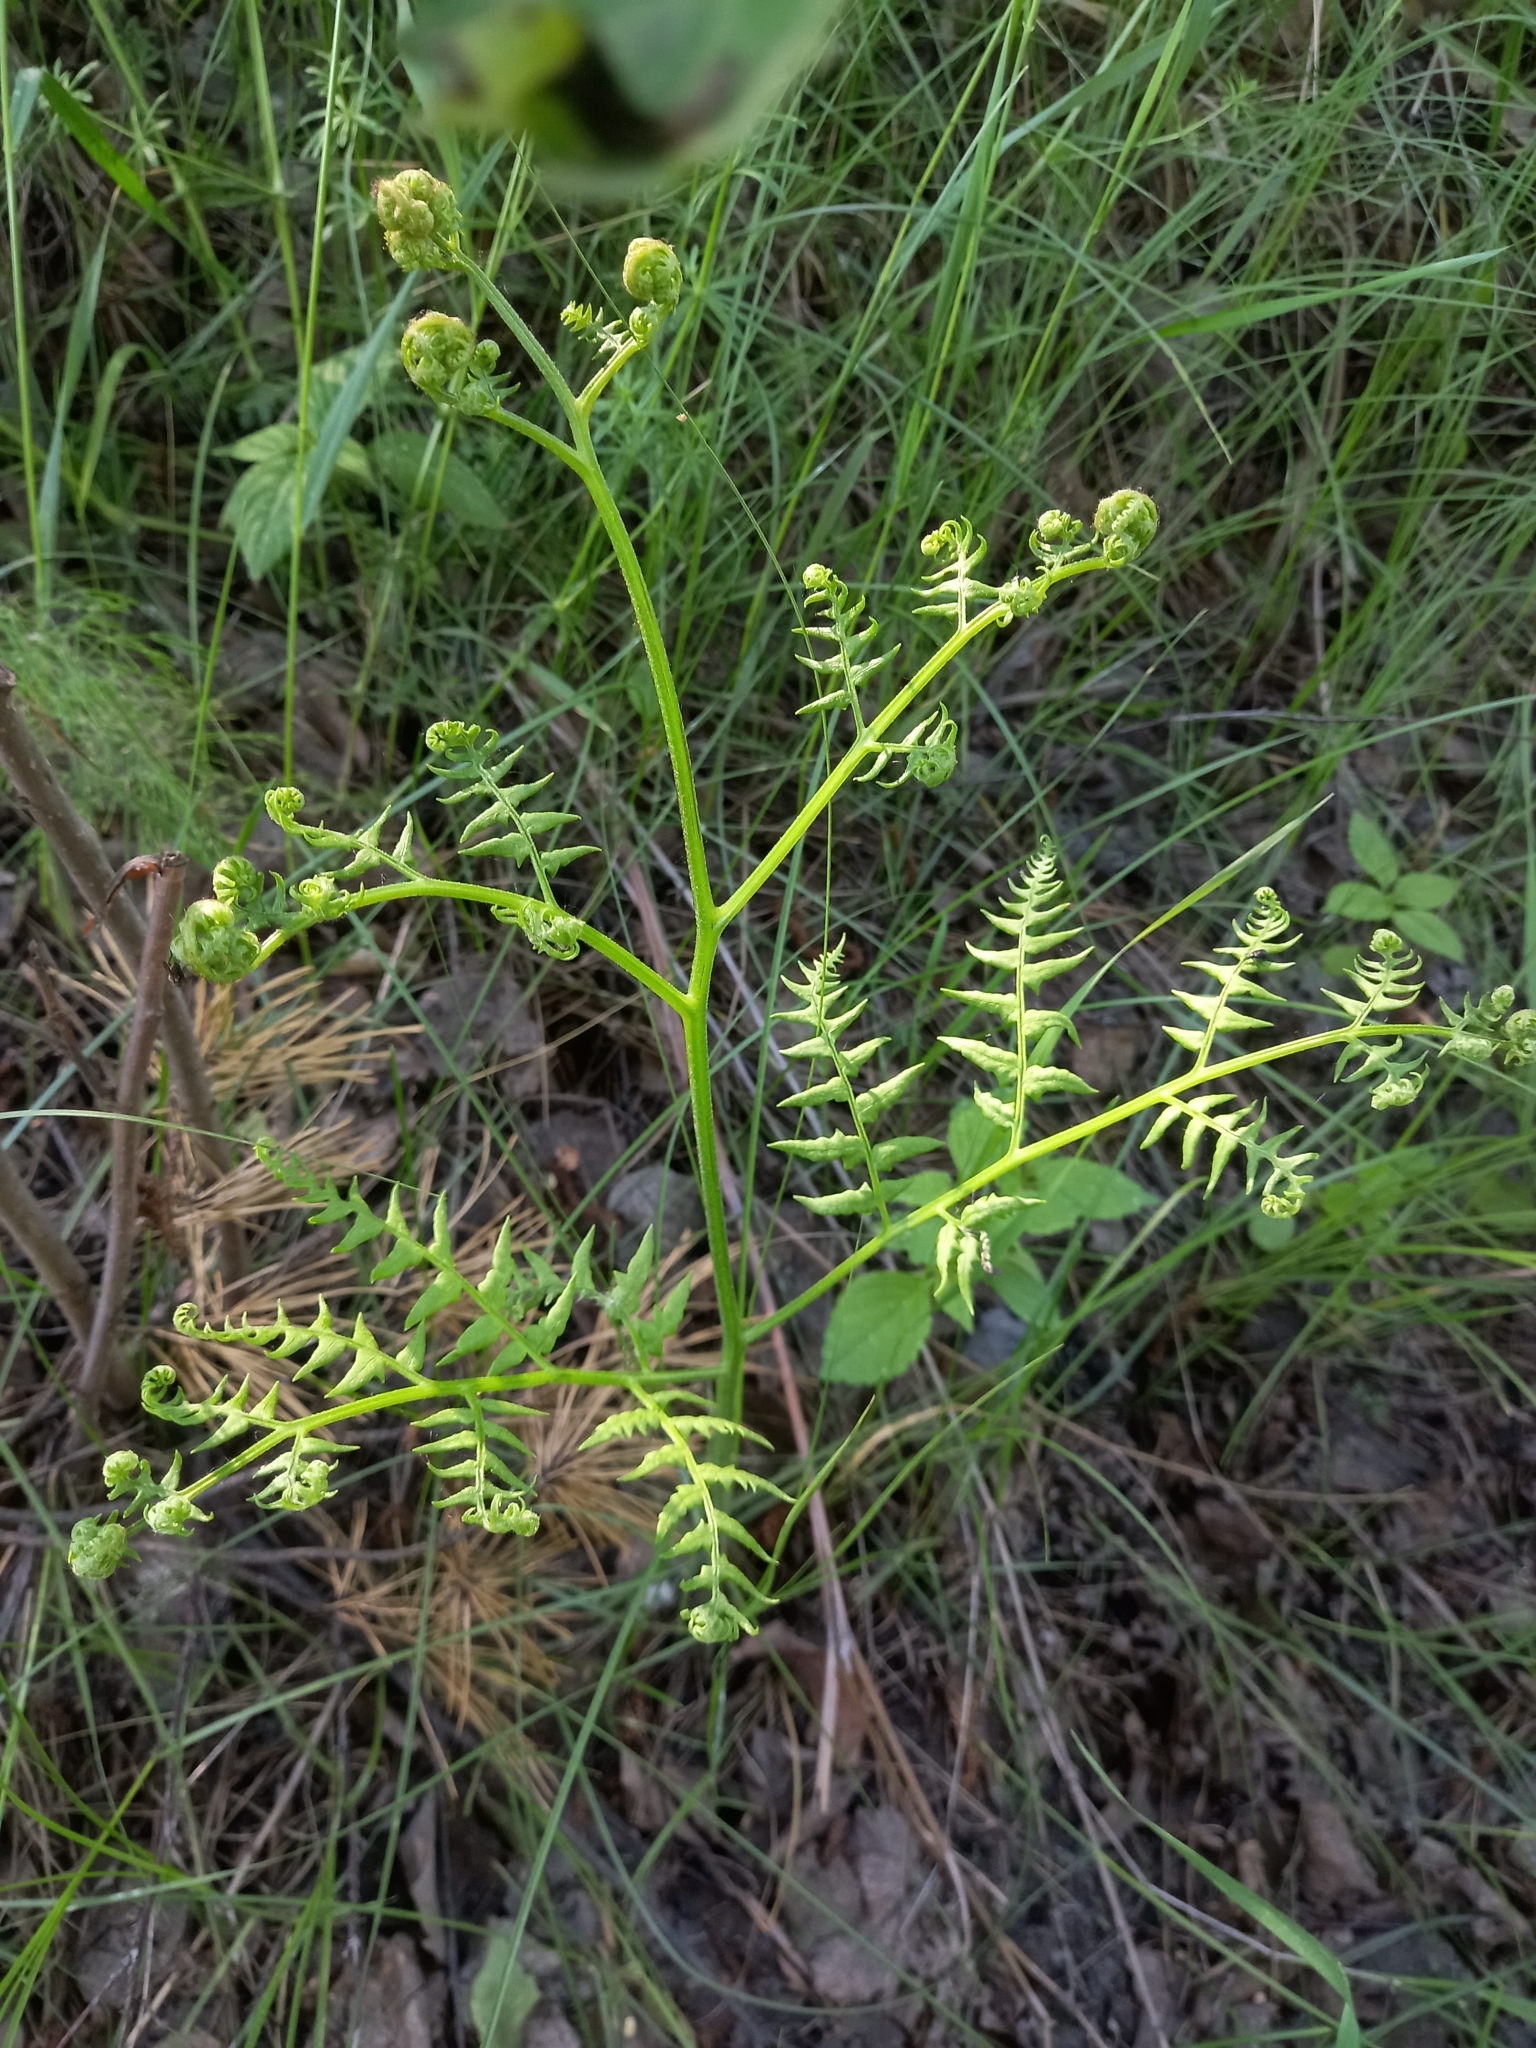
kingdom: Plantae
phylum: Tracheophyta
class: Polypodiopsida
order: Polypodiales
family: Dennstaedtiaceae
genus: Pteridium
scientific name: Pteridium aquilinum
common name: Bracken
